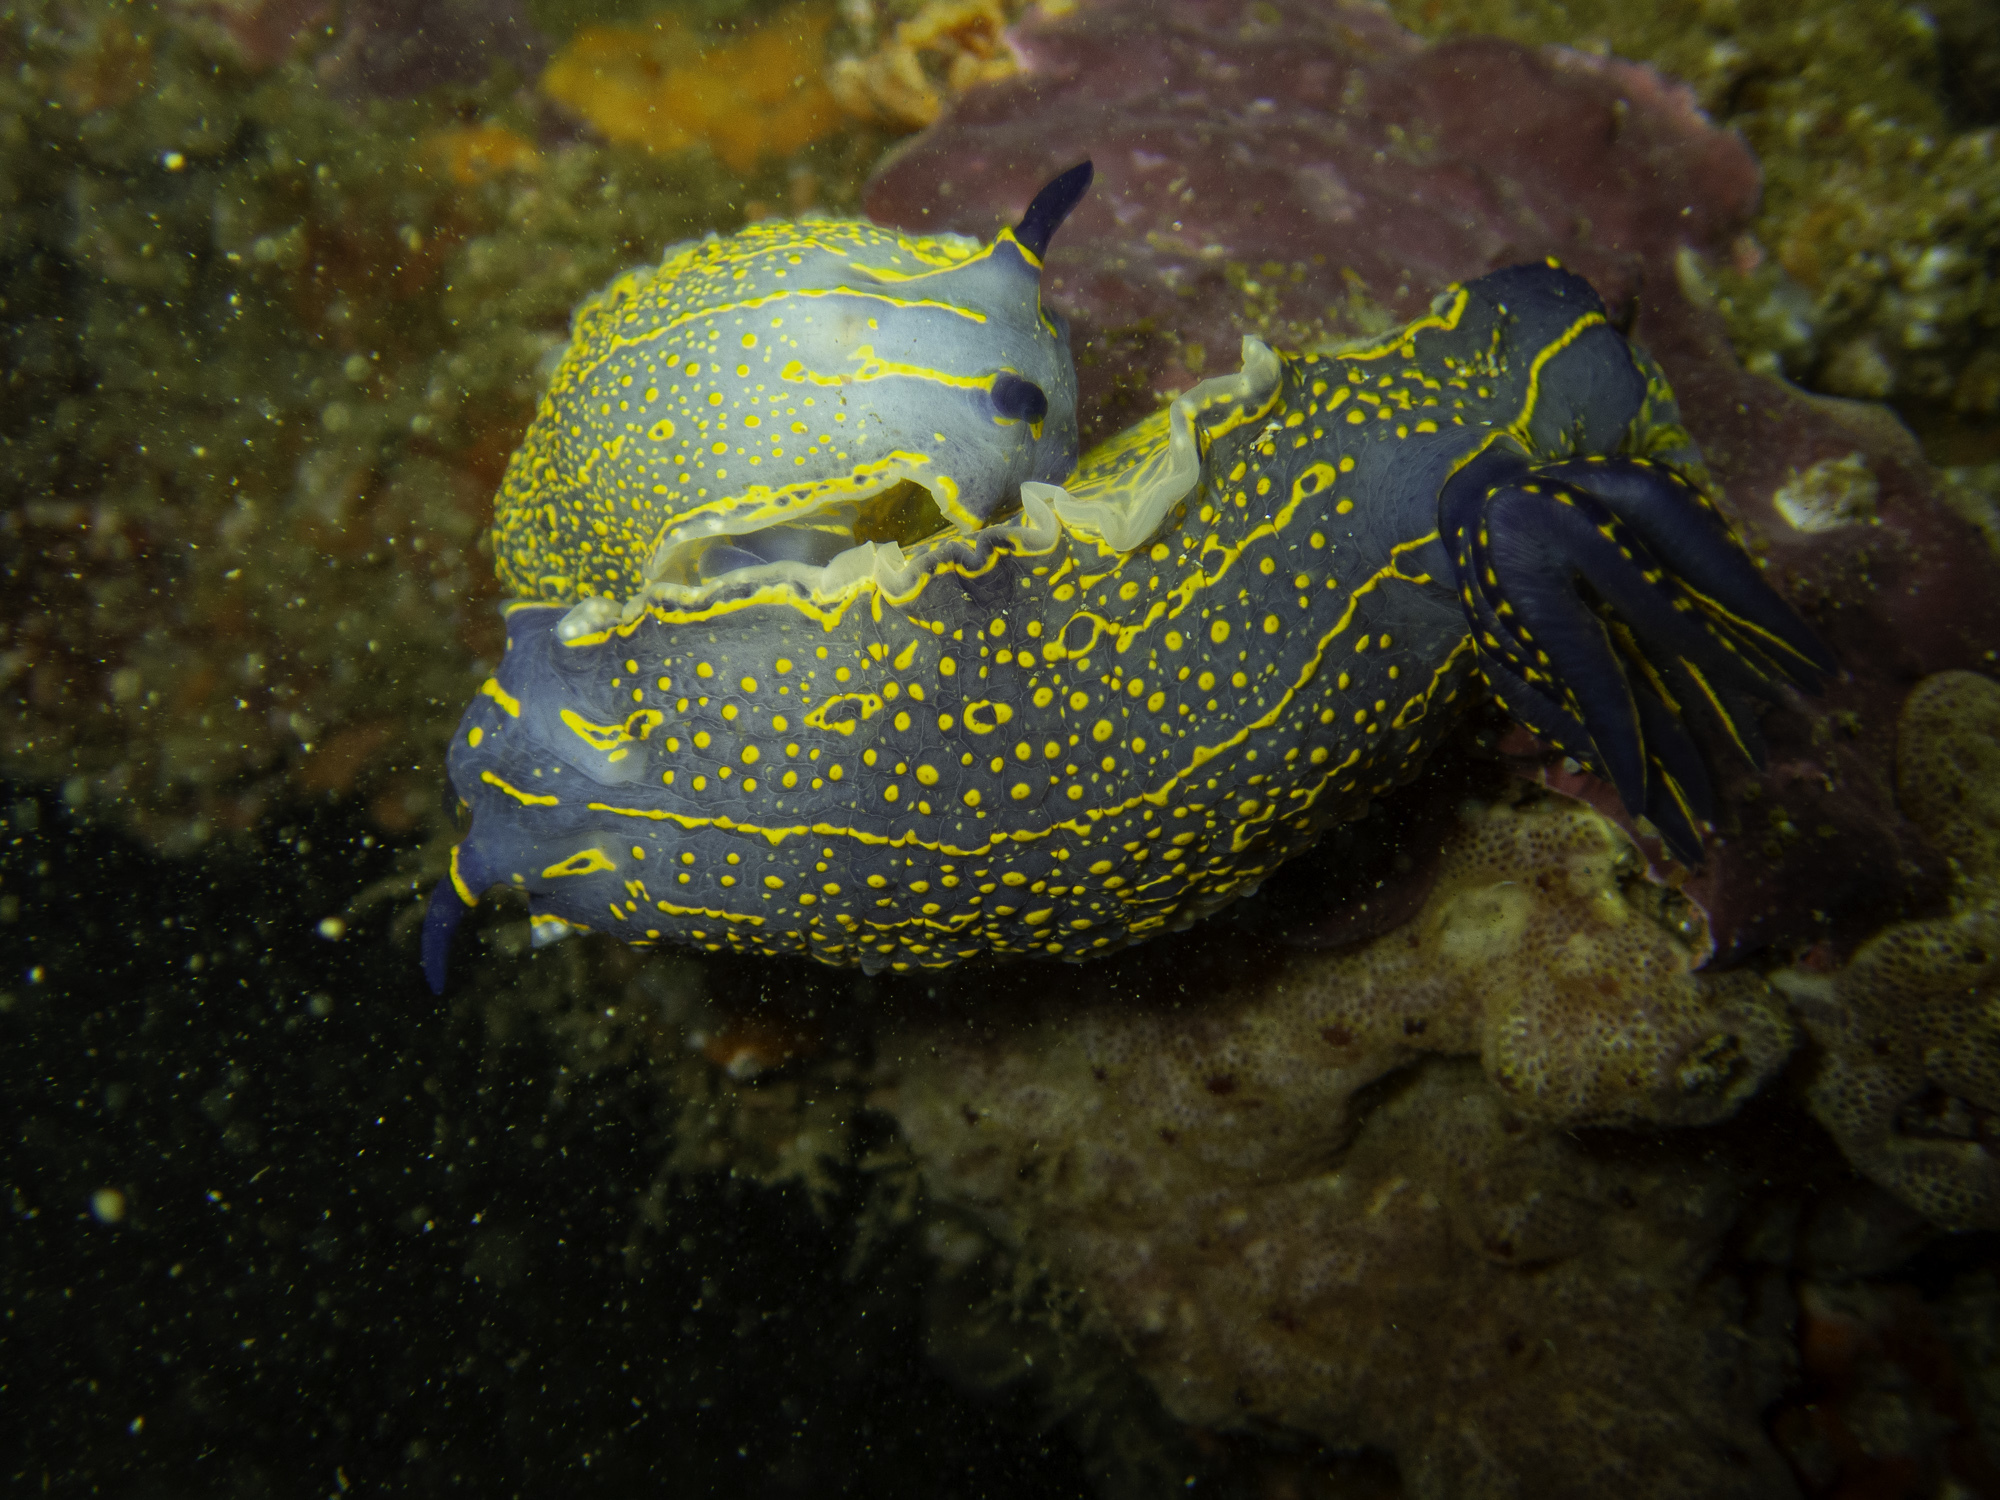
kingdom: Animalia
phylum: Mollusca
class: Gastropoda
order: Nudibranchia
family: Chromodorididae
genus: Felimare
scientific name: Felimare picta
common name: Giant doris
